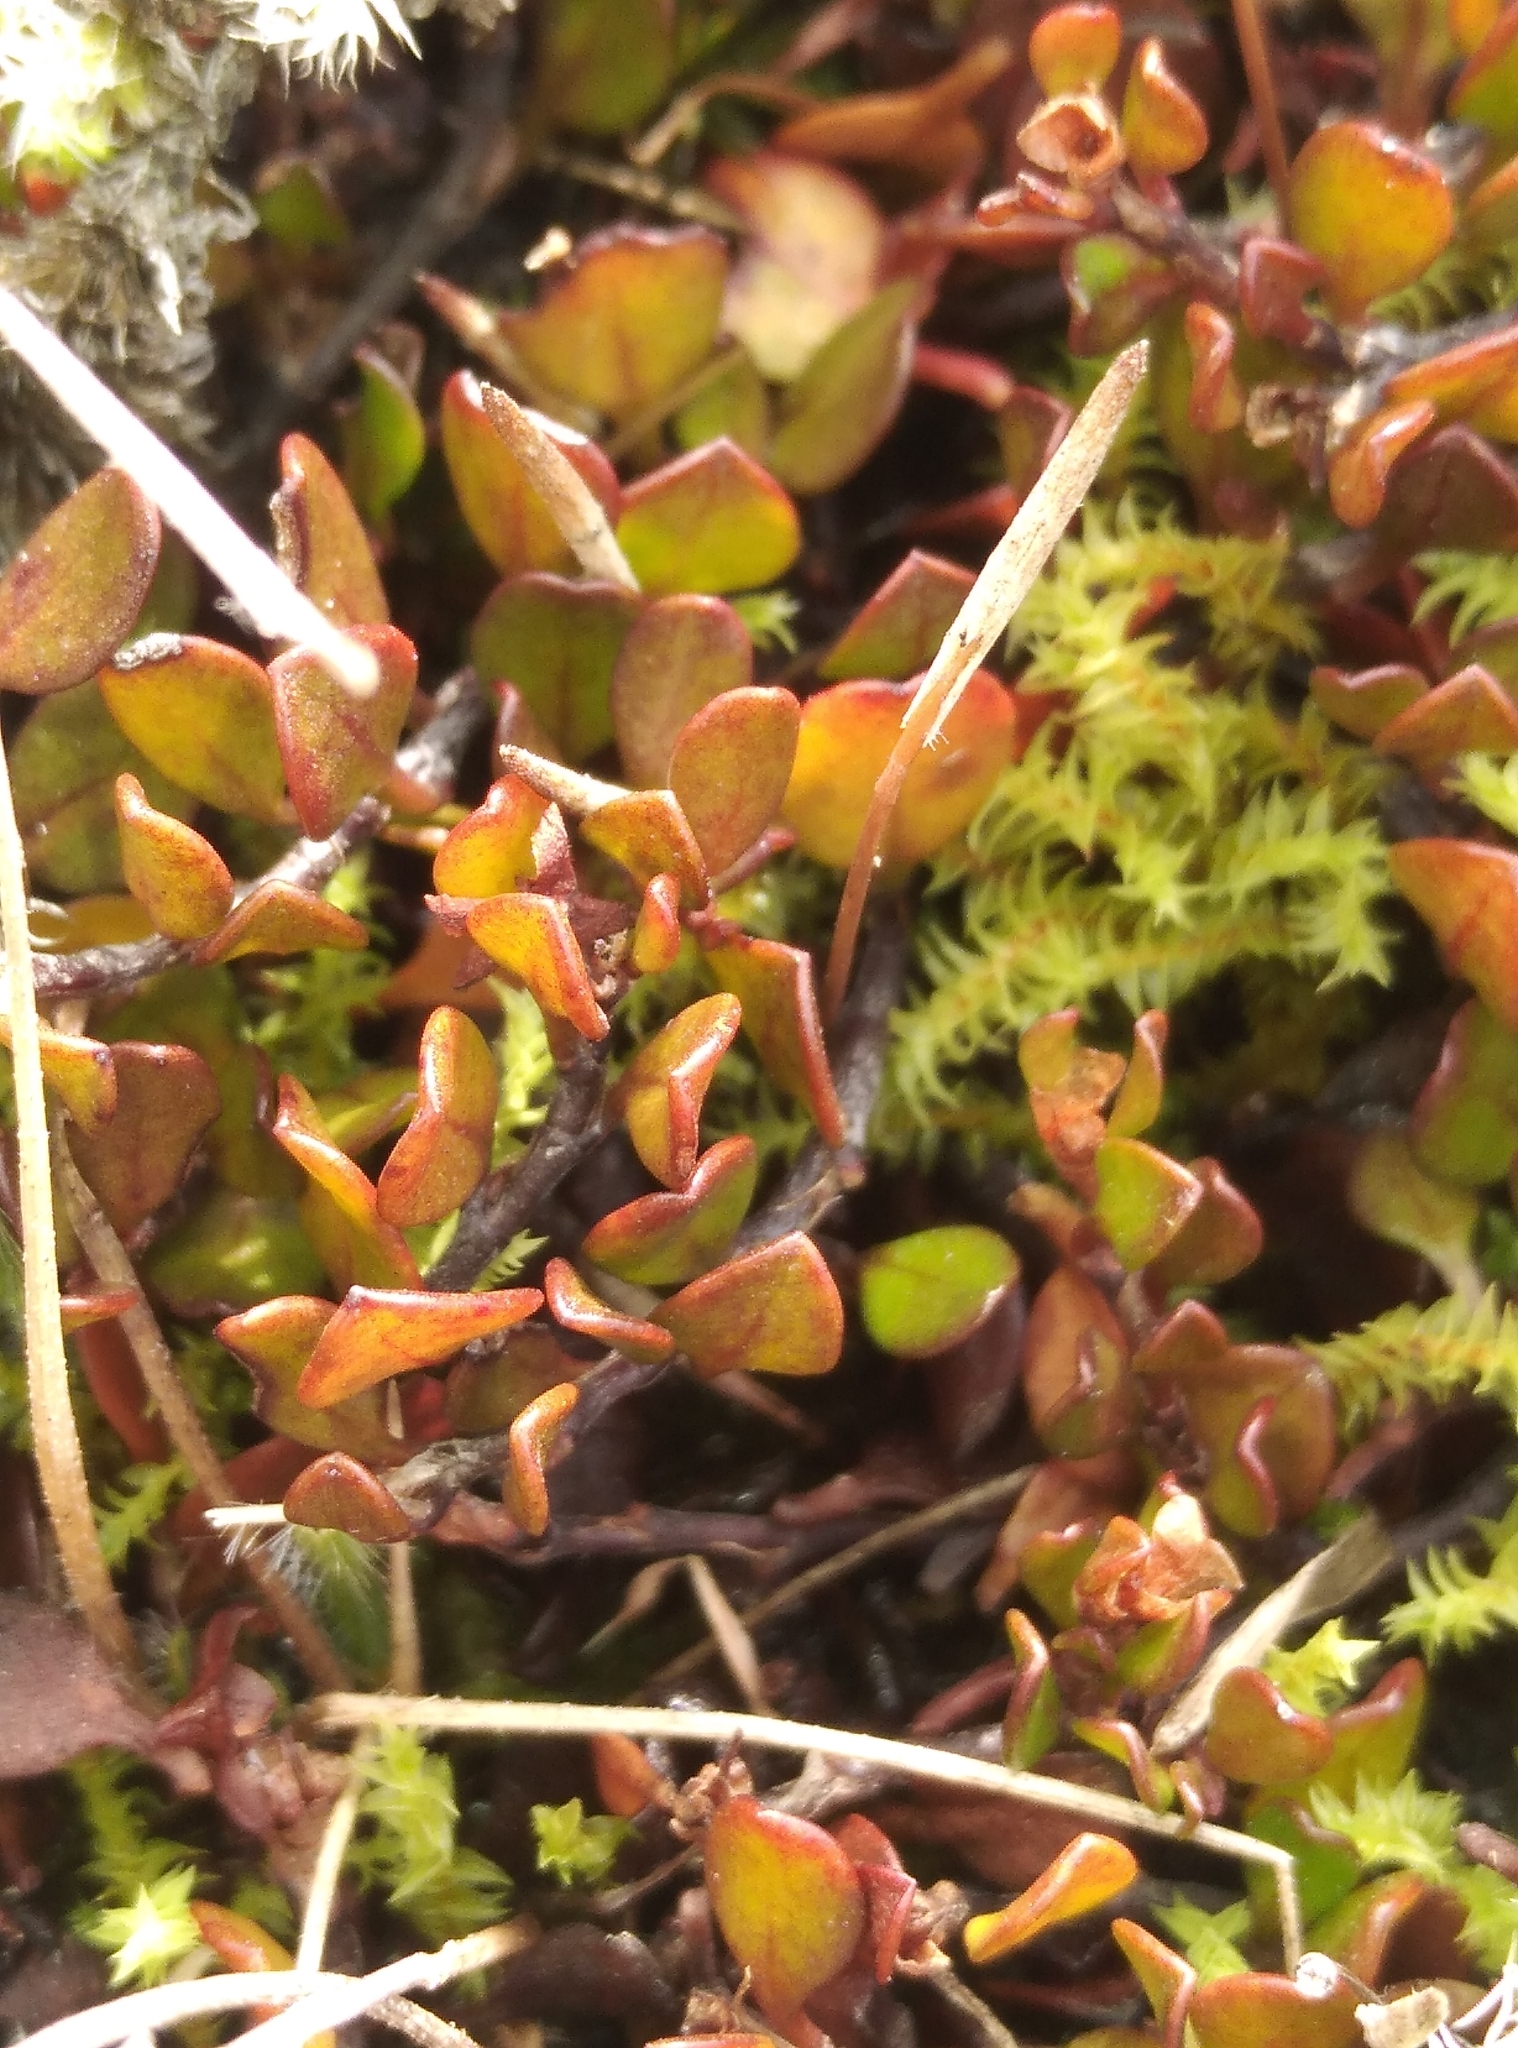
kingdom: Plantae
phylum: Tracheophyta
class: Magnoliopsida
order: Caryophyllales
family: Polygonaceae
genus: Muehlenbeckia
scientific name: Muehlenbeckia axillaris
